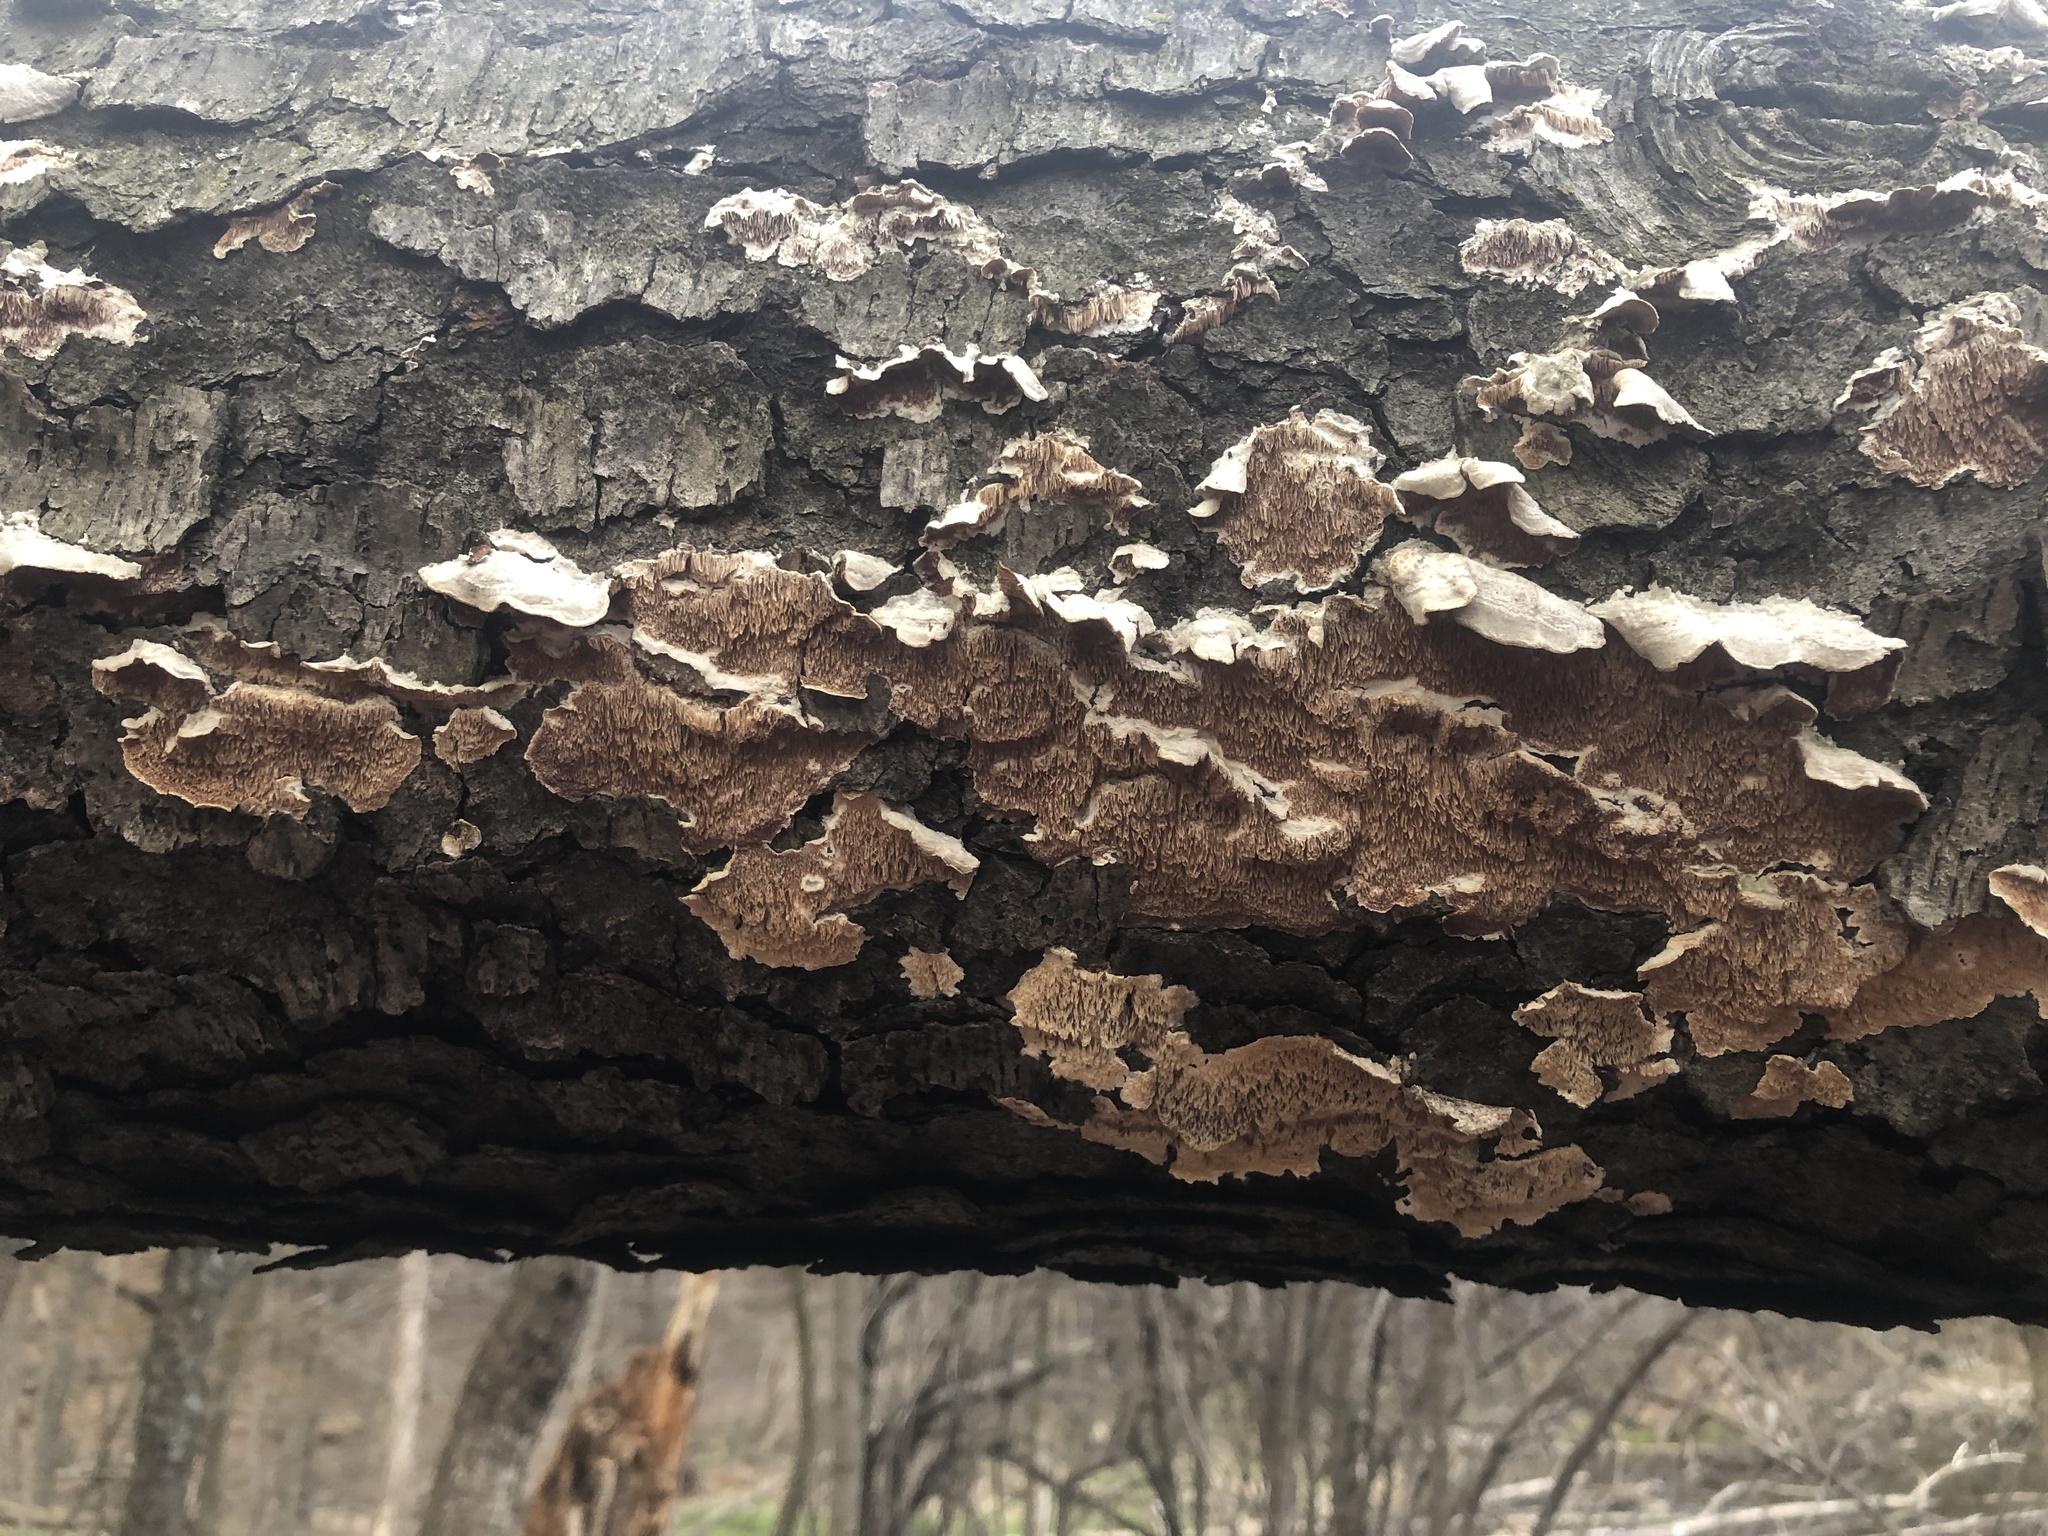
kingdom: Fungi
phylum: Basidiomycota
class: Agaricomycetes
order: Polyporales
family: Irpicaceae
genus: Irpex
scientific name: Irpex lacteus
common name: Milk-white toothed polypore
